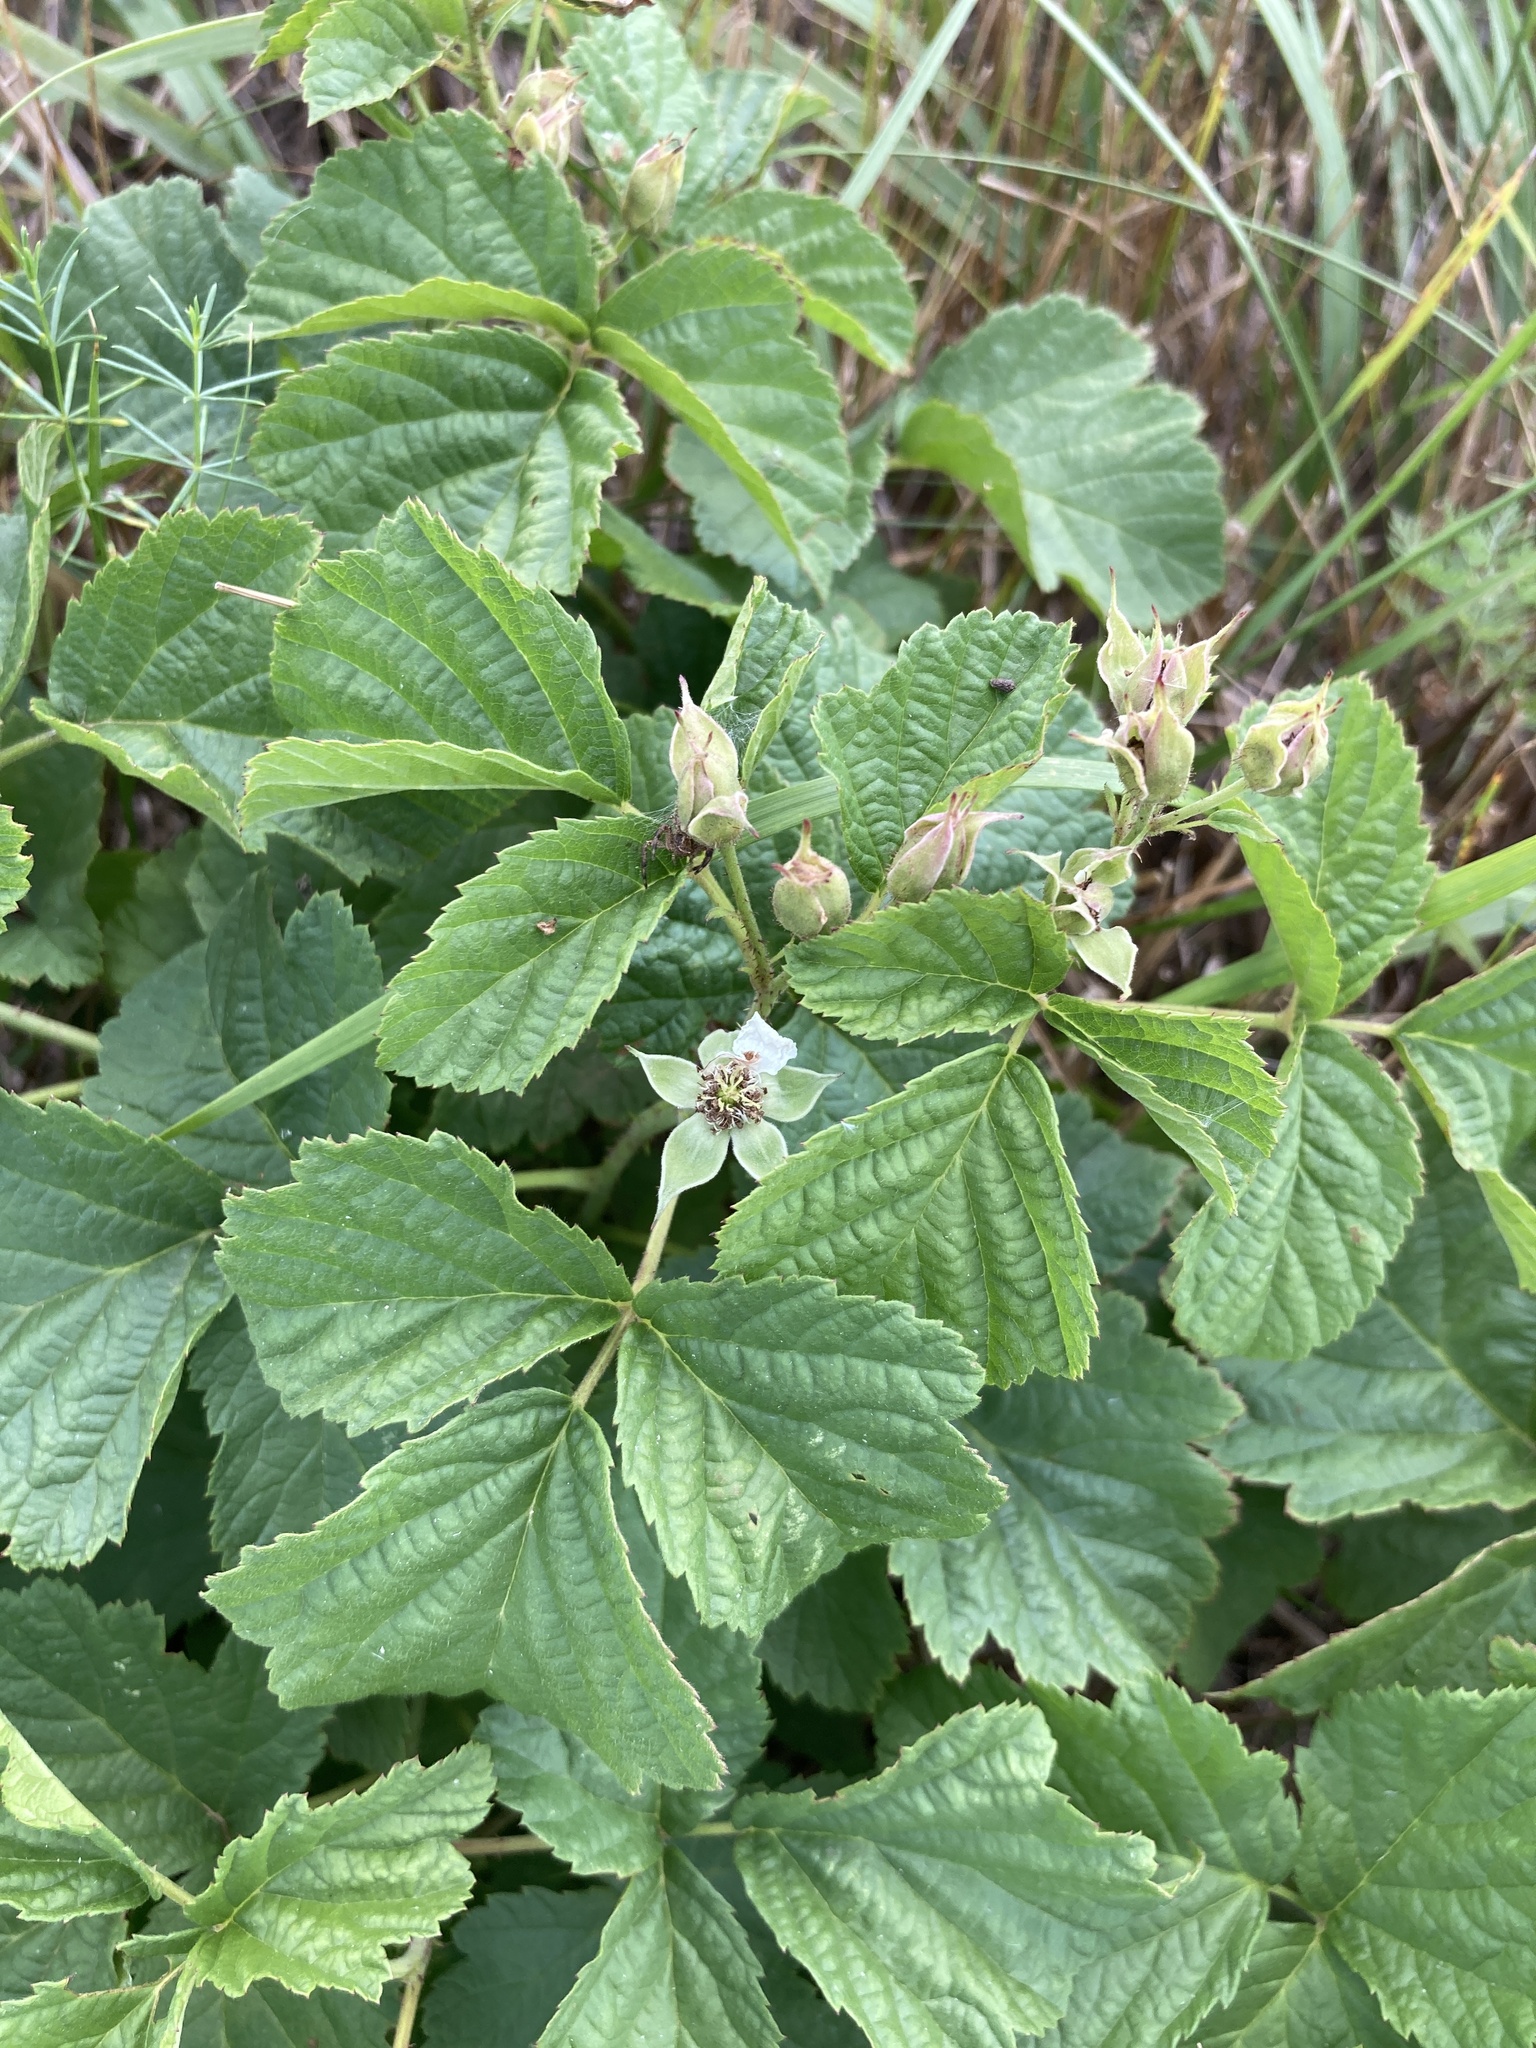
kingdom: Plantae
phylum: Tracheophyta
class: Magnoliopsida
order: Rosales
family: Rosaceae
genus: Rubus
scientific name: Rubus caesius
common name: Dewberry
